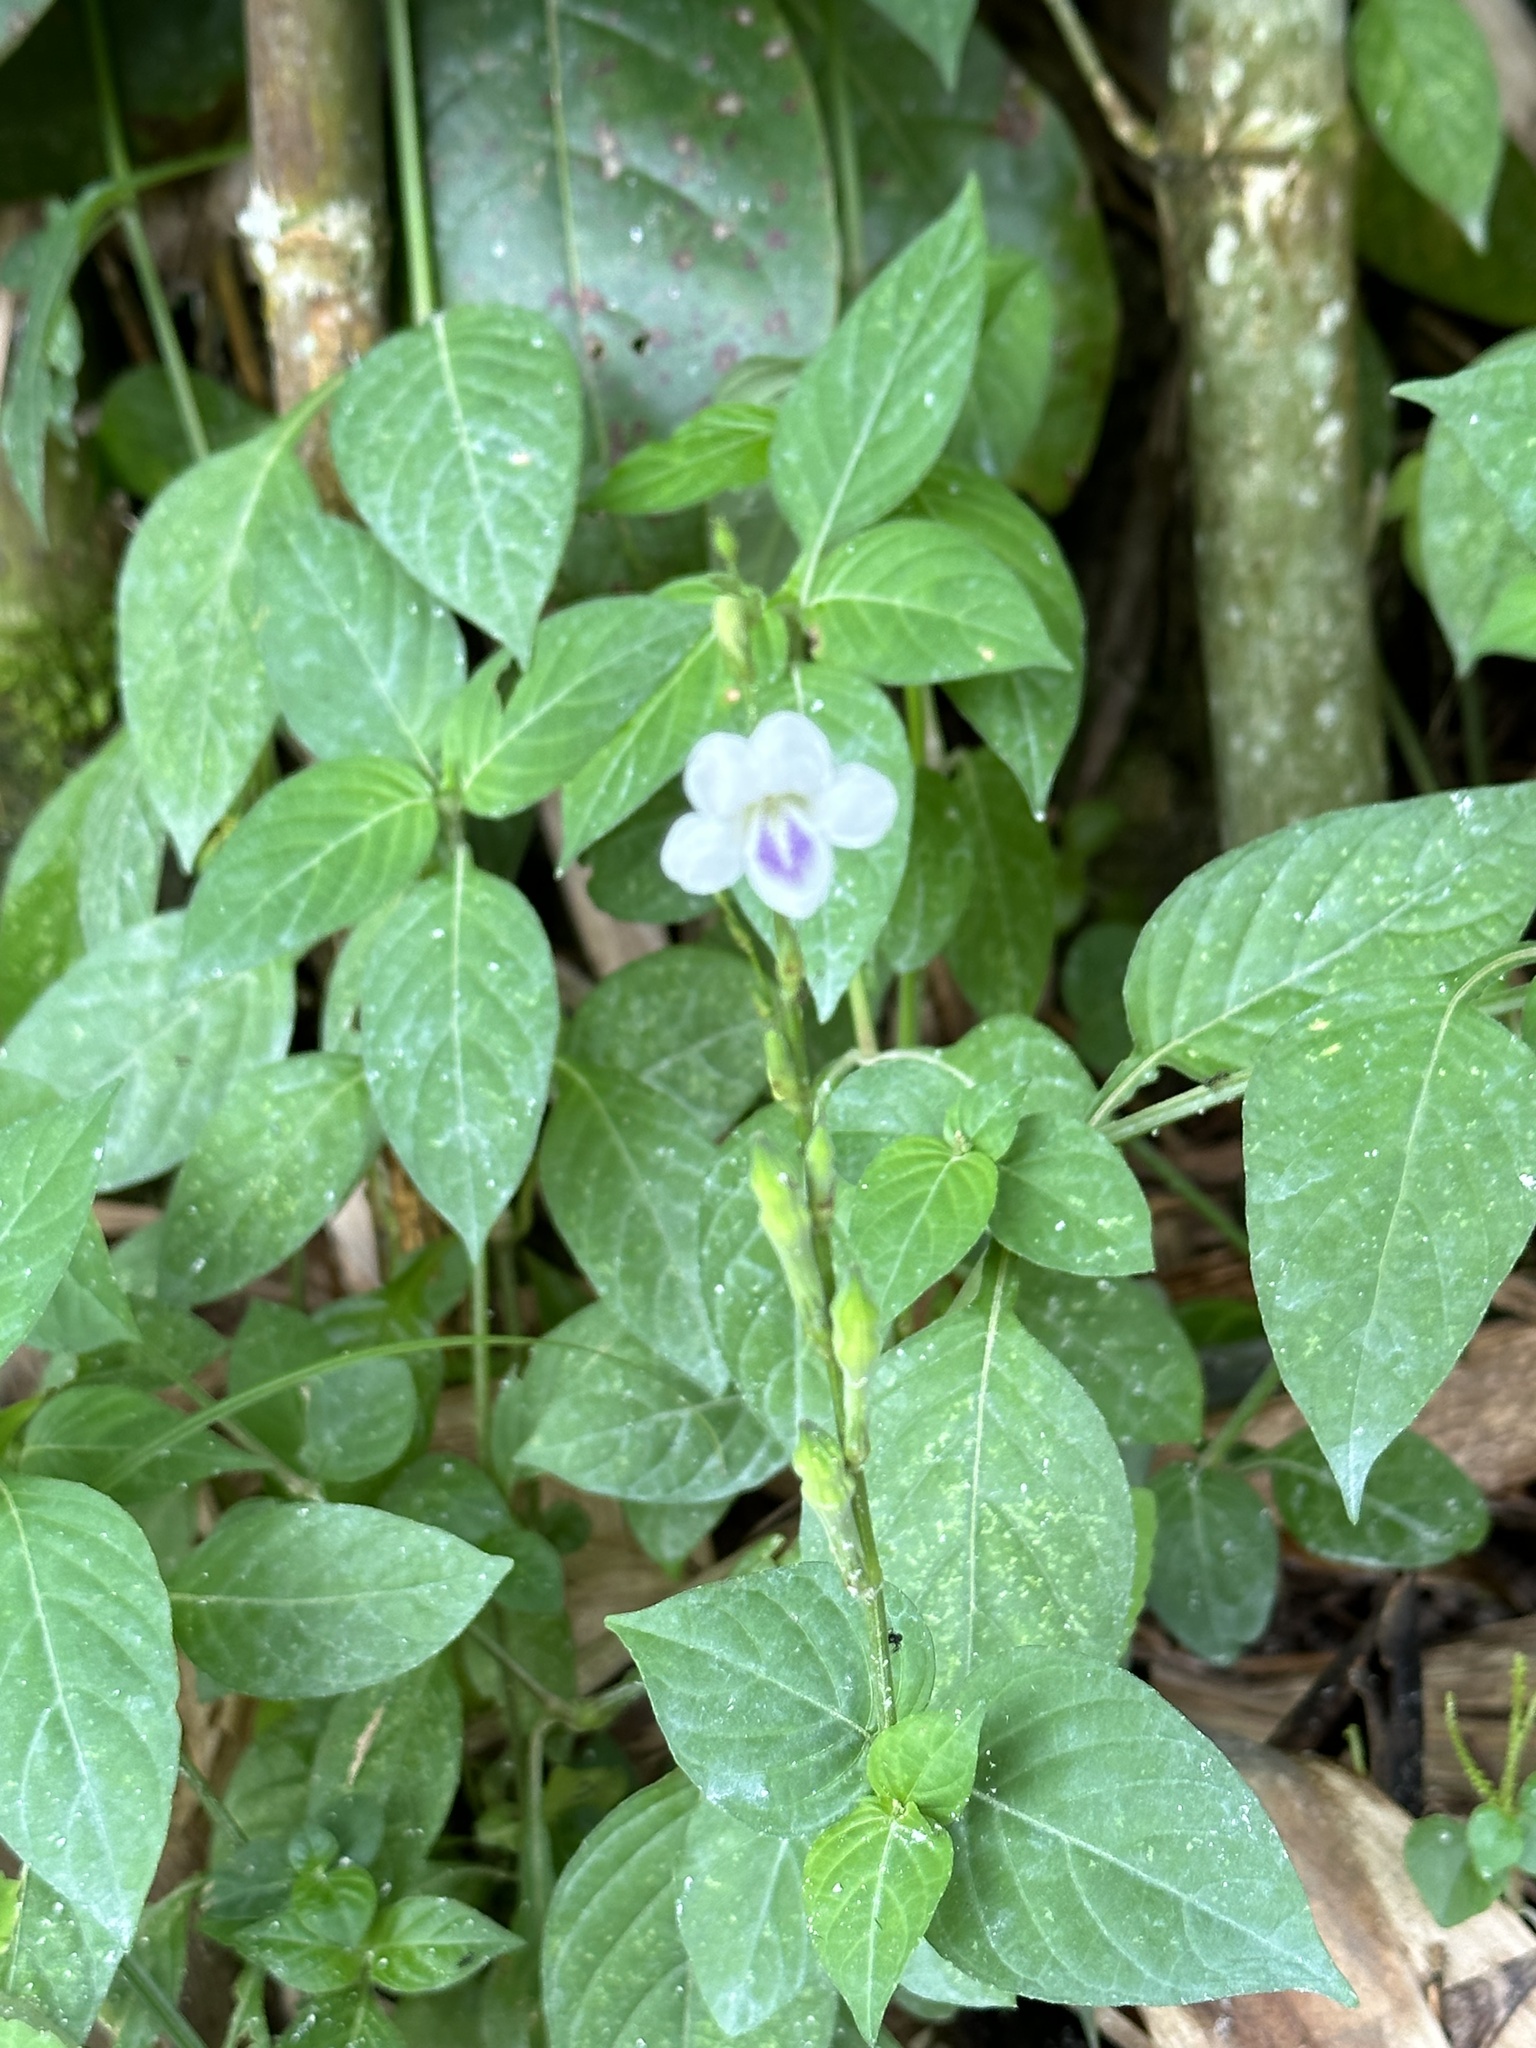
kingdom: Plantae
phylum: Tracheophyta
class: Magnoliopsida
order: Lamiales
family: Acanthaceae
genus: Asystasia
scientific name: Asystasia intrusa
